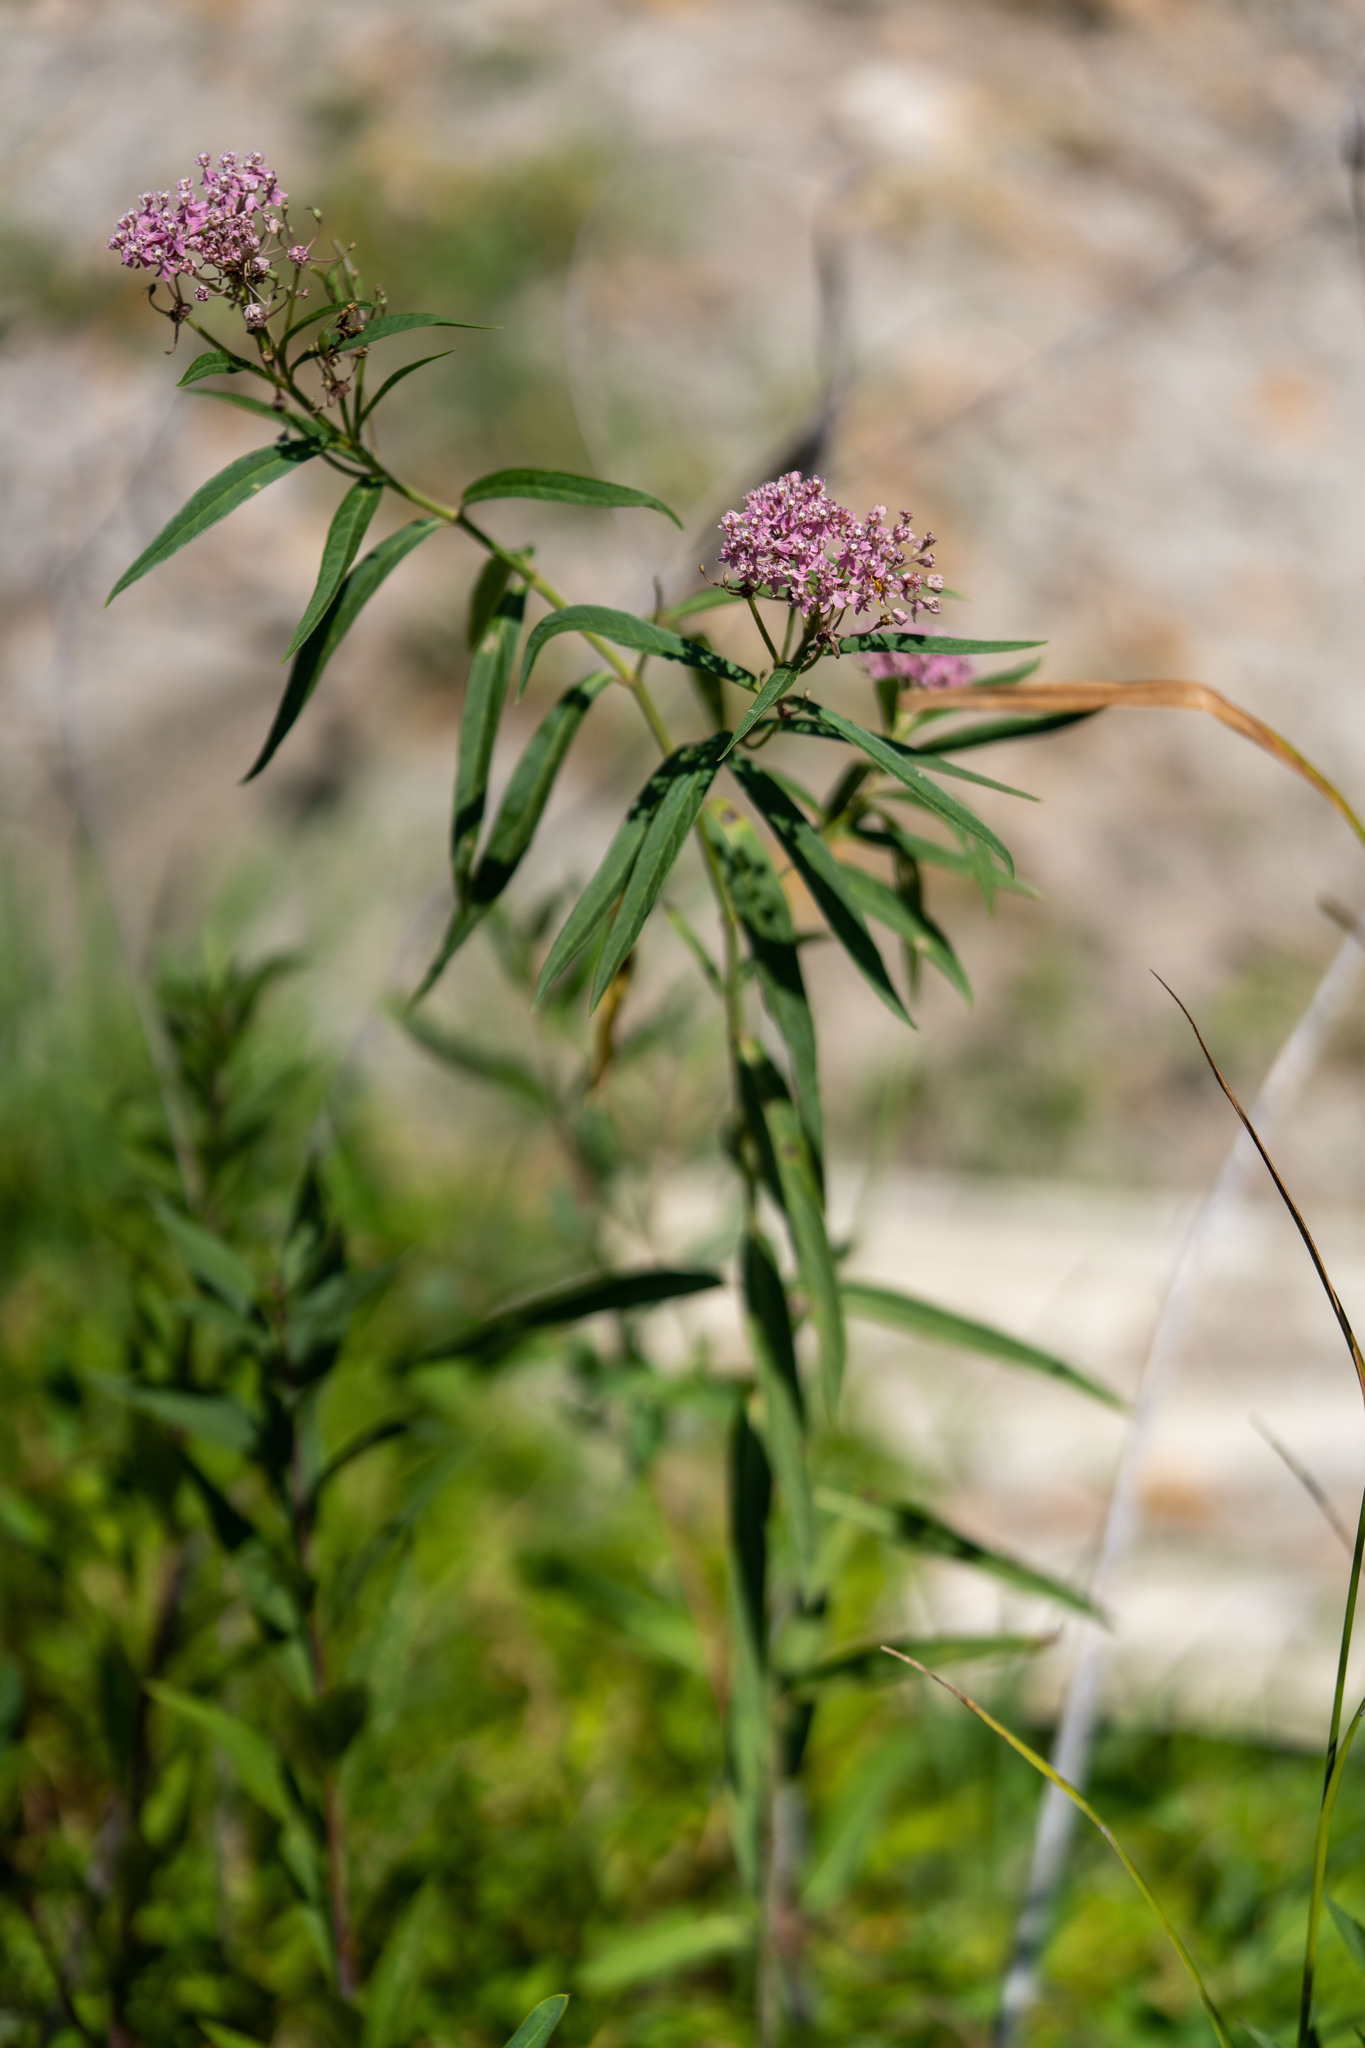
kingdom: Plantae
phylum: Tracheophyta
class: Magnoliopsida
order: Gentianales
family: Apocynaceae
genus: Asclepias
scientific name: Asclepias incarnata
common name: Swamp milkweed
